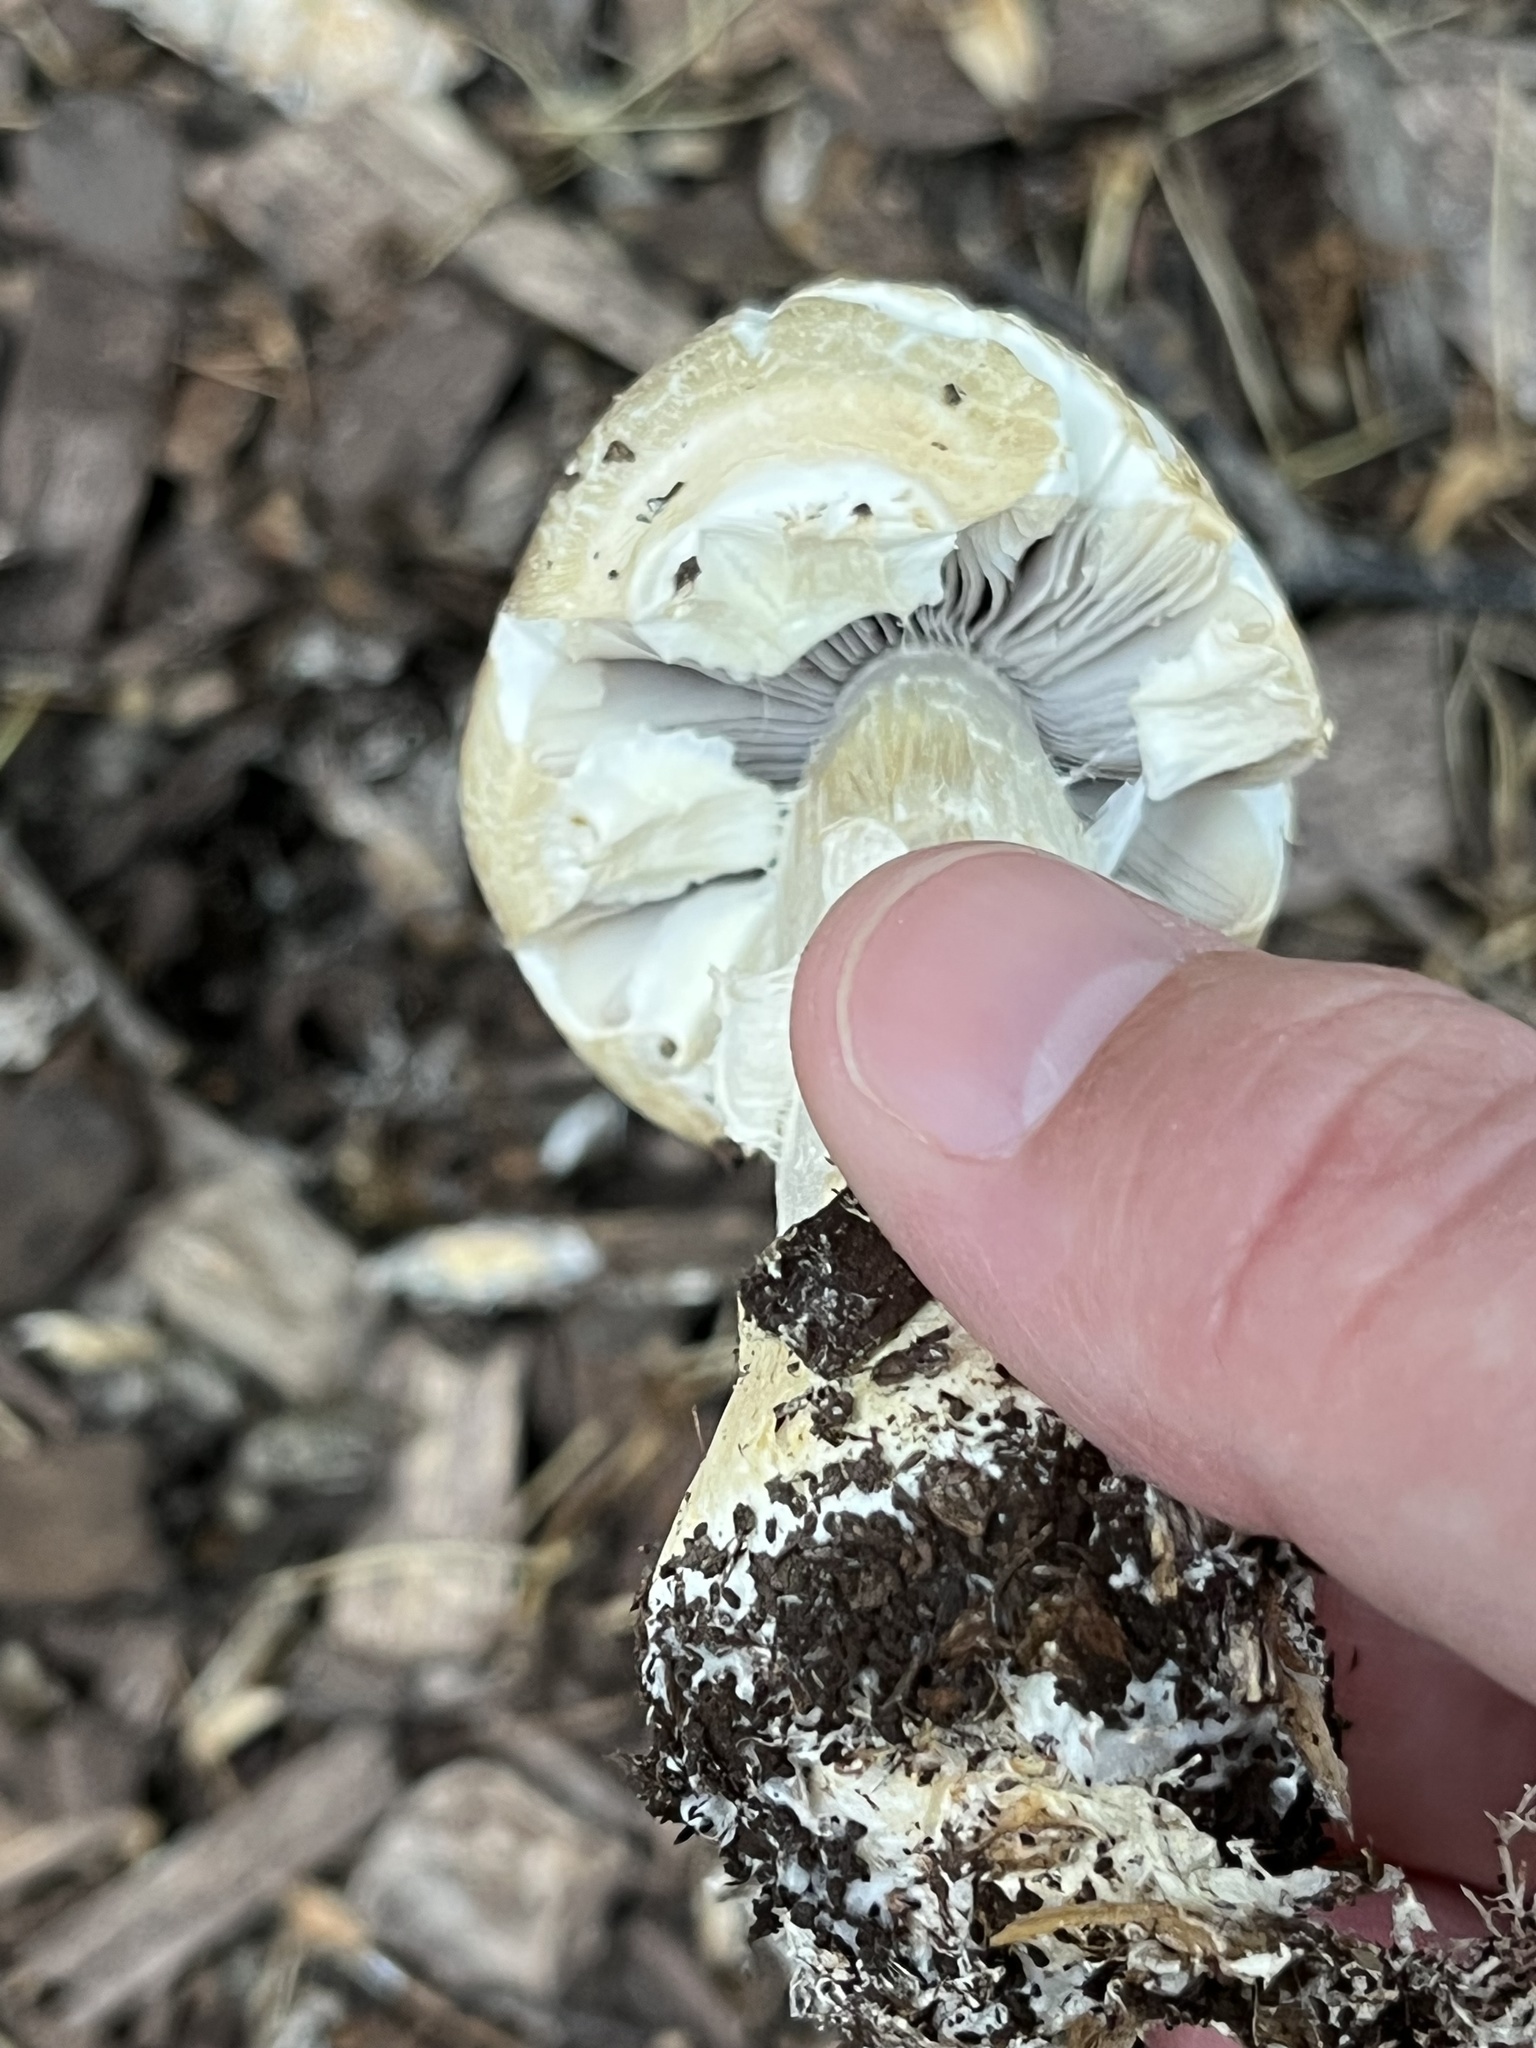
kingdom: Fungi
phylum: Basidiomycota
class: Agaricomycetes
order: Agaricales
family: Strophariaceae
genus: Agrocybe
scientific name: Agrocybe praecox
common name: Spring fieldcap
